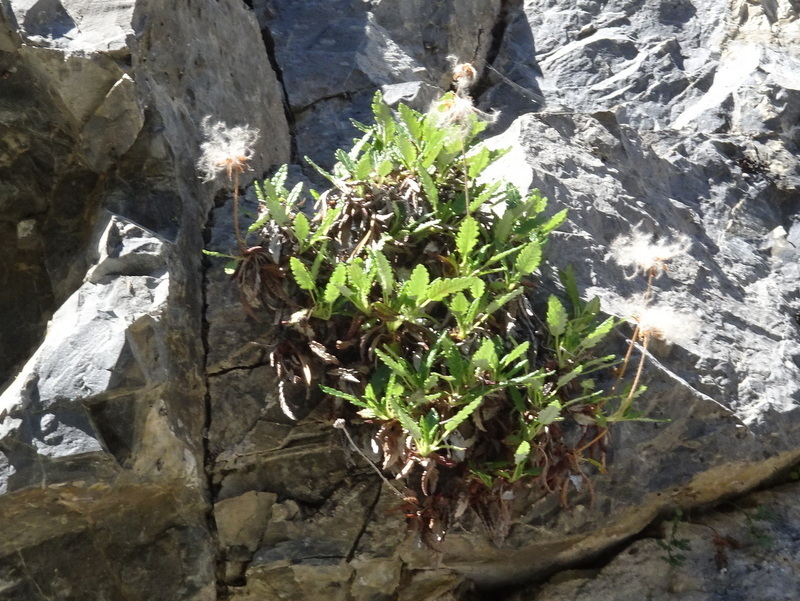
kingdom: Plantae
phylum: Tracheophyta
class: Magnoliopsida
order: Rosales
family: Rosaceae
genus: Dryas
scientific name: Dryas octopetala
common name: Eight-petal mountain-avens
